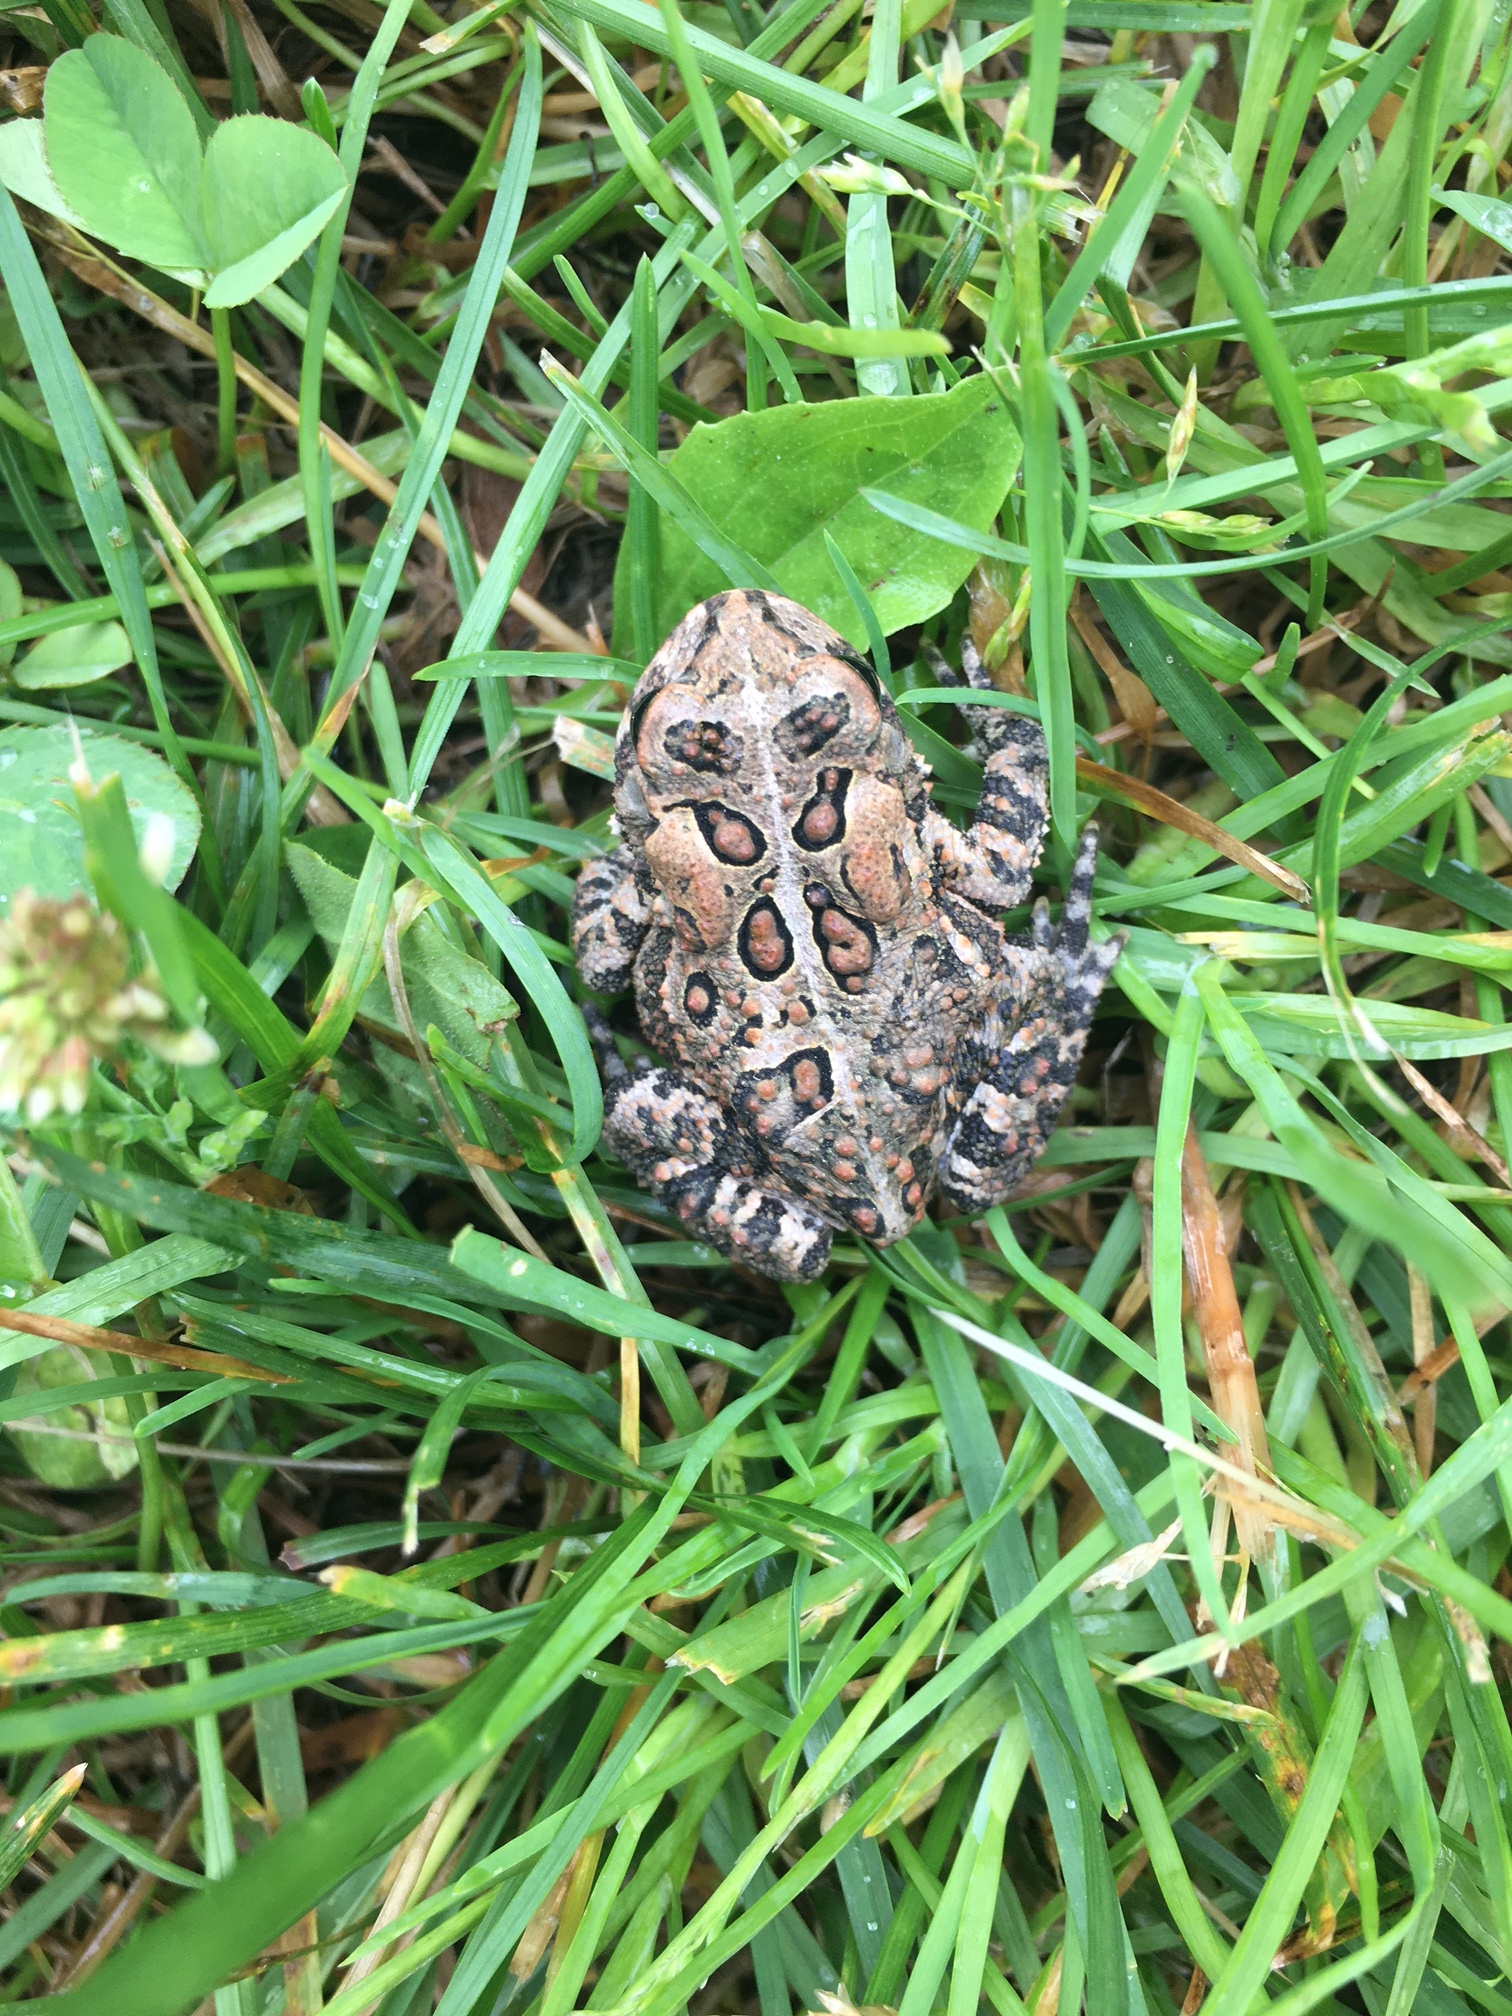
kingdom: Animalia
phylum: Chordata
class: Amphibia
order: Anura
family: Bufonidae
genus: Anaxyrus
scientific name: Anaxyrus americanus
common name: American toad
